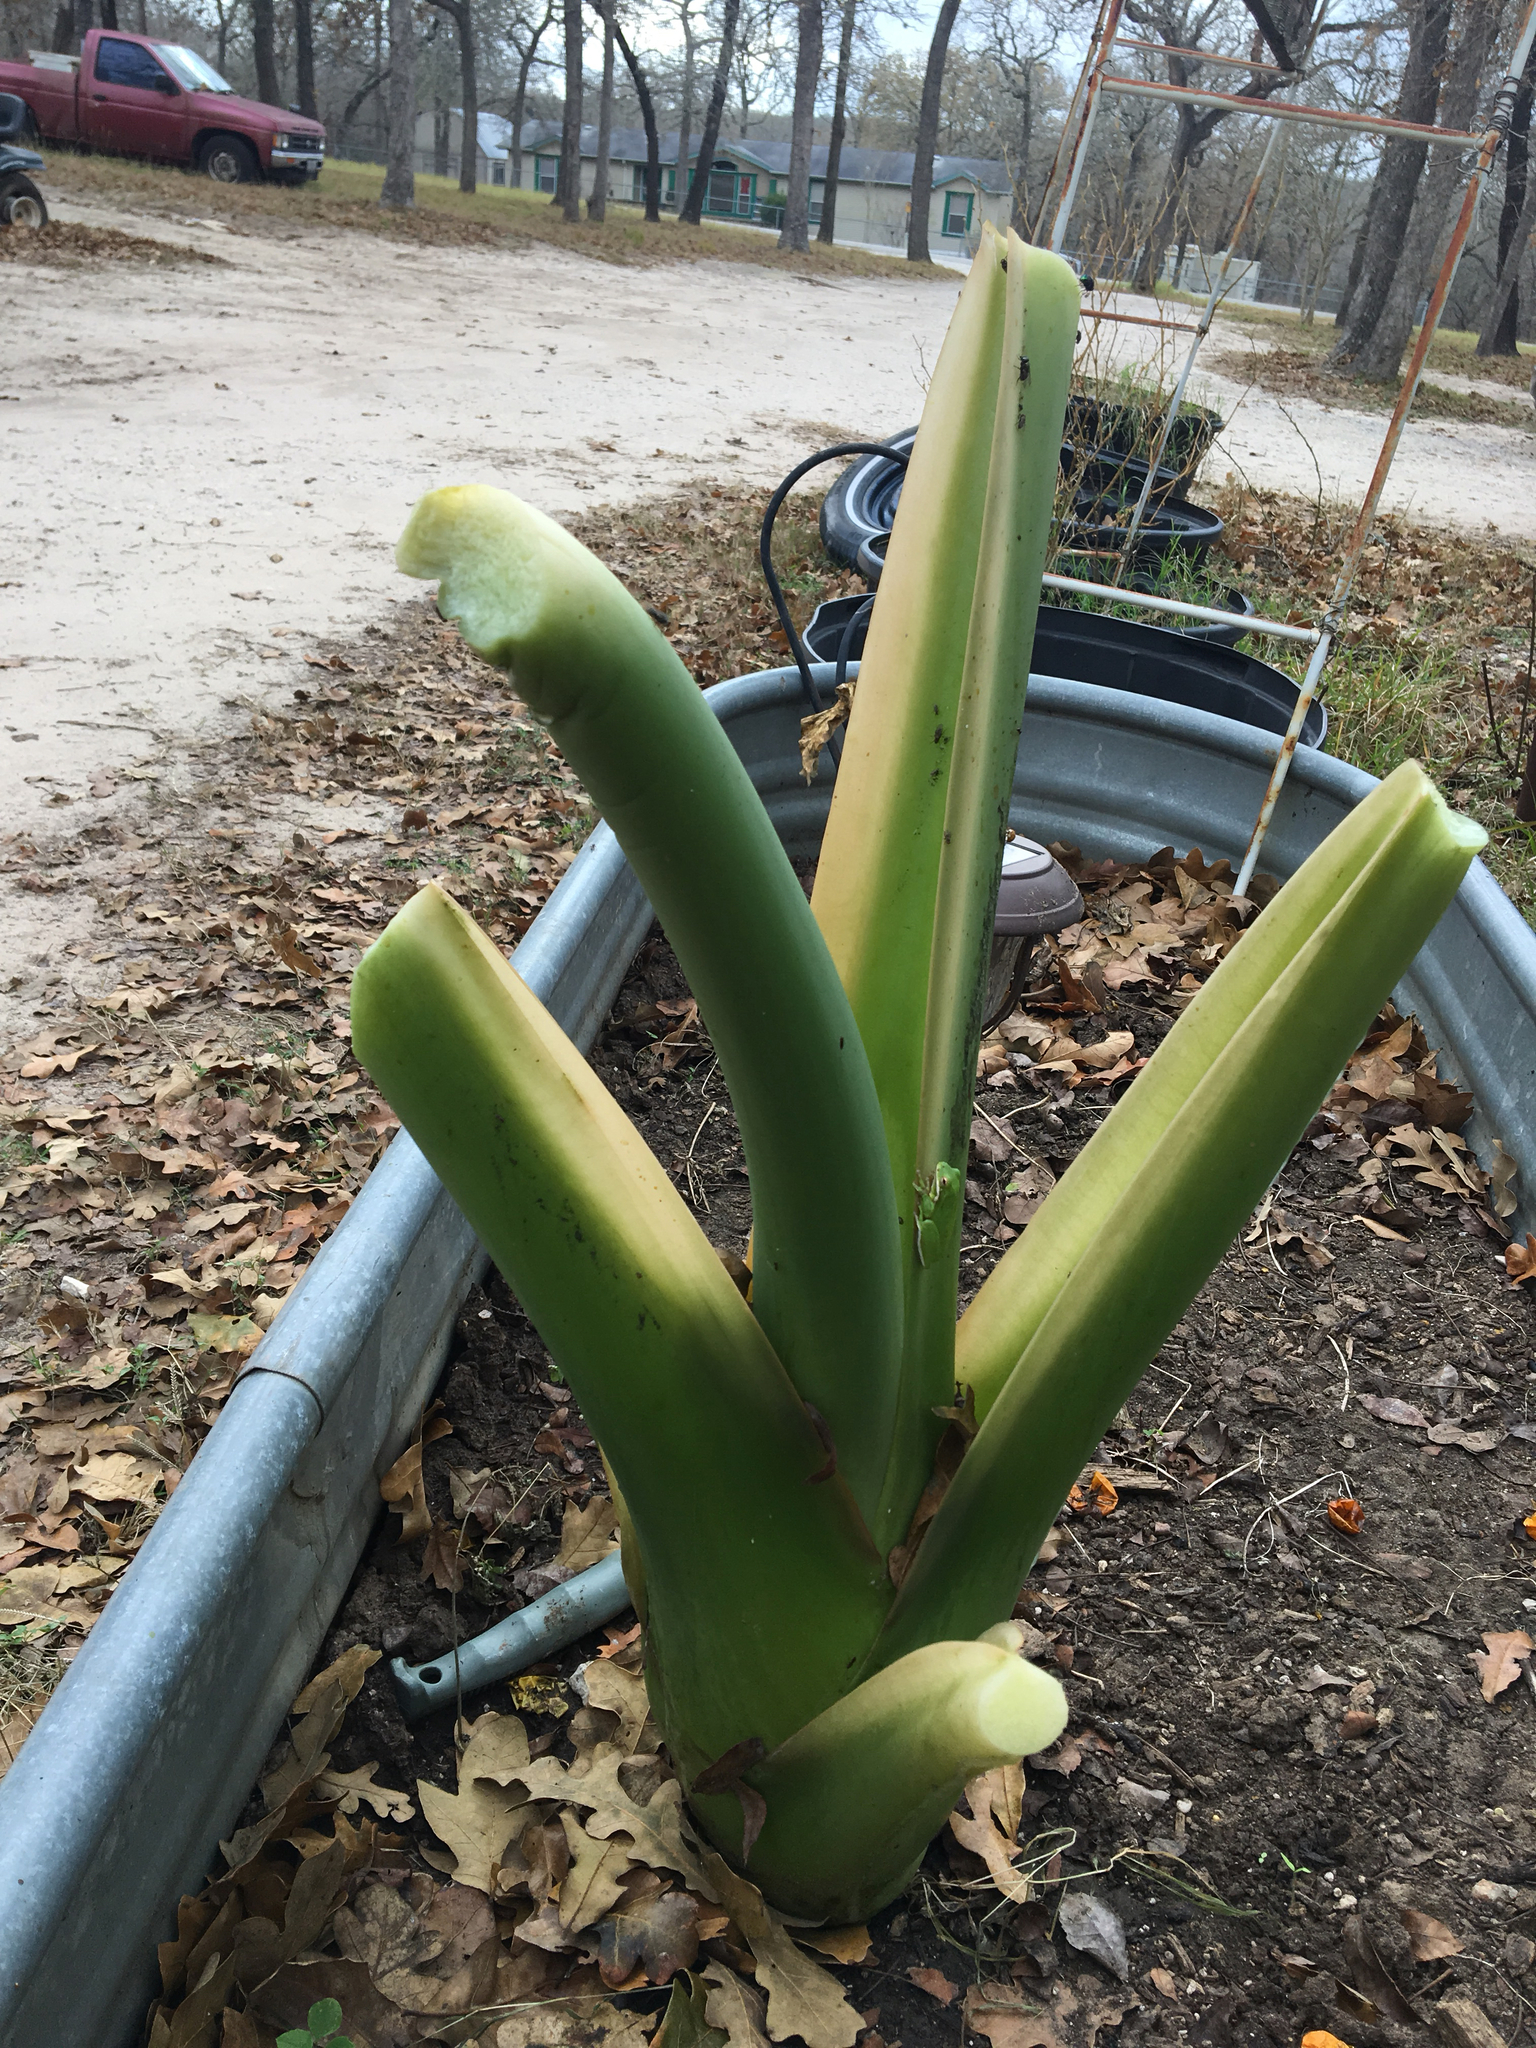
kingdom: Animalia
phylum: Chordata
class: Amphibia
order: Anura
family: Hylidae
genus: Dryophytes
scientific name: Dryophytes cinereus
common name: Green treefrog
